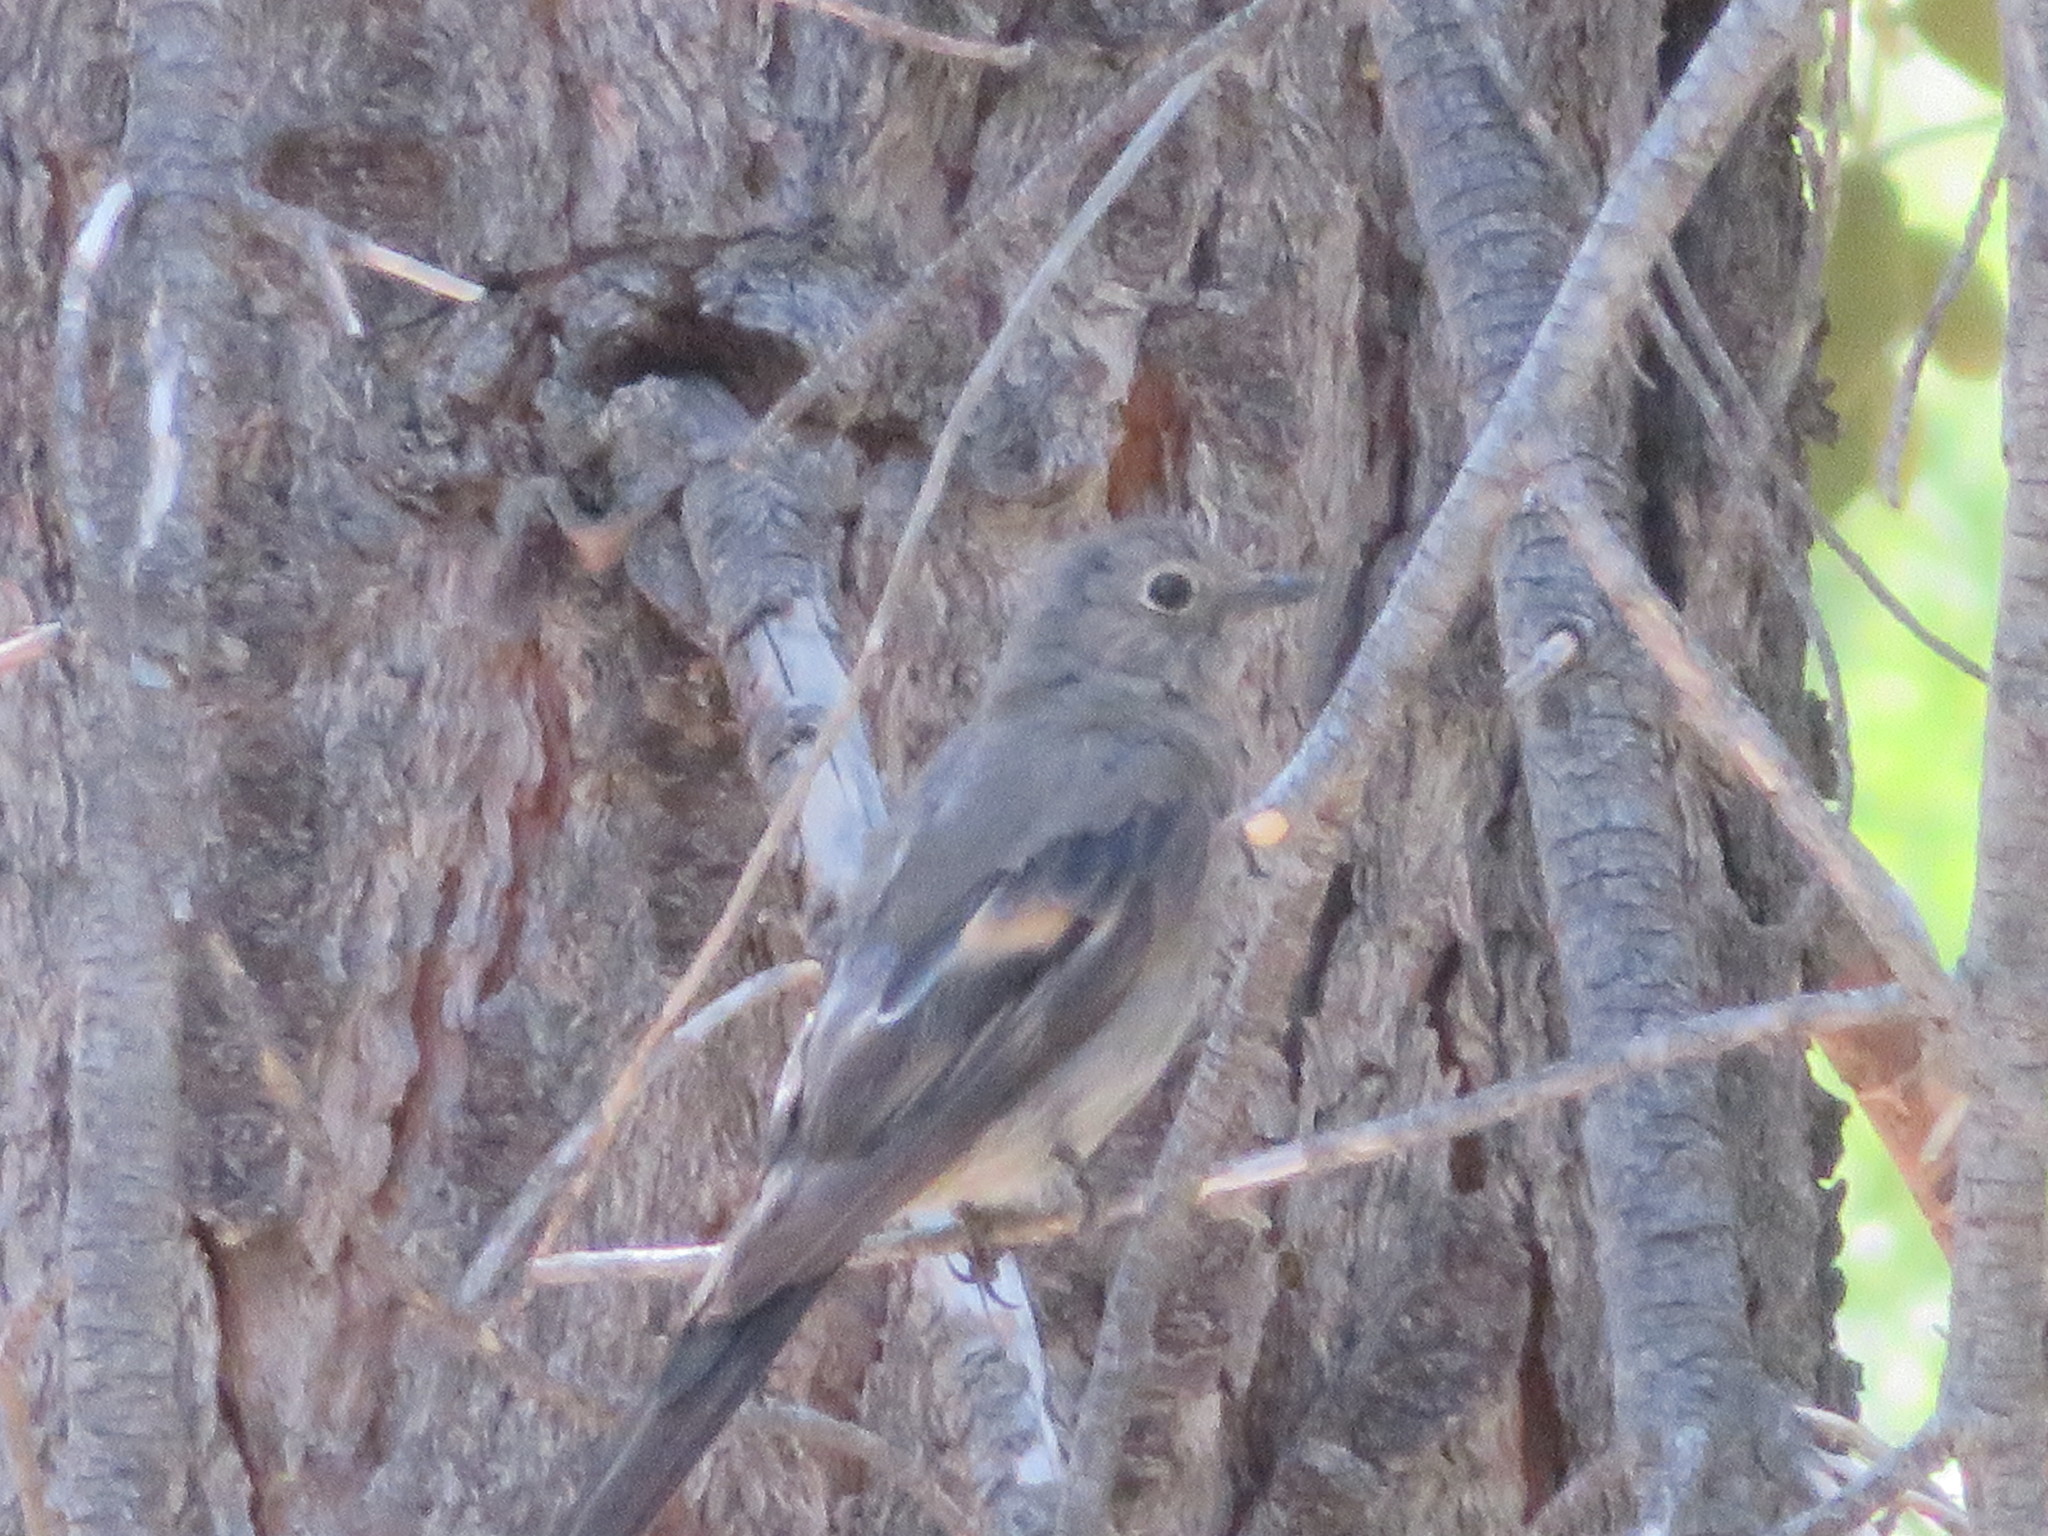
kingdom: Animalia
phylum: Chordata
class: Aves
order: Passeriformes
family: Turdidae
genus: Myadestes
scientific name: Myadestes townsendi
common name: Townsend's solitaire
